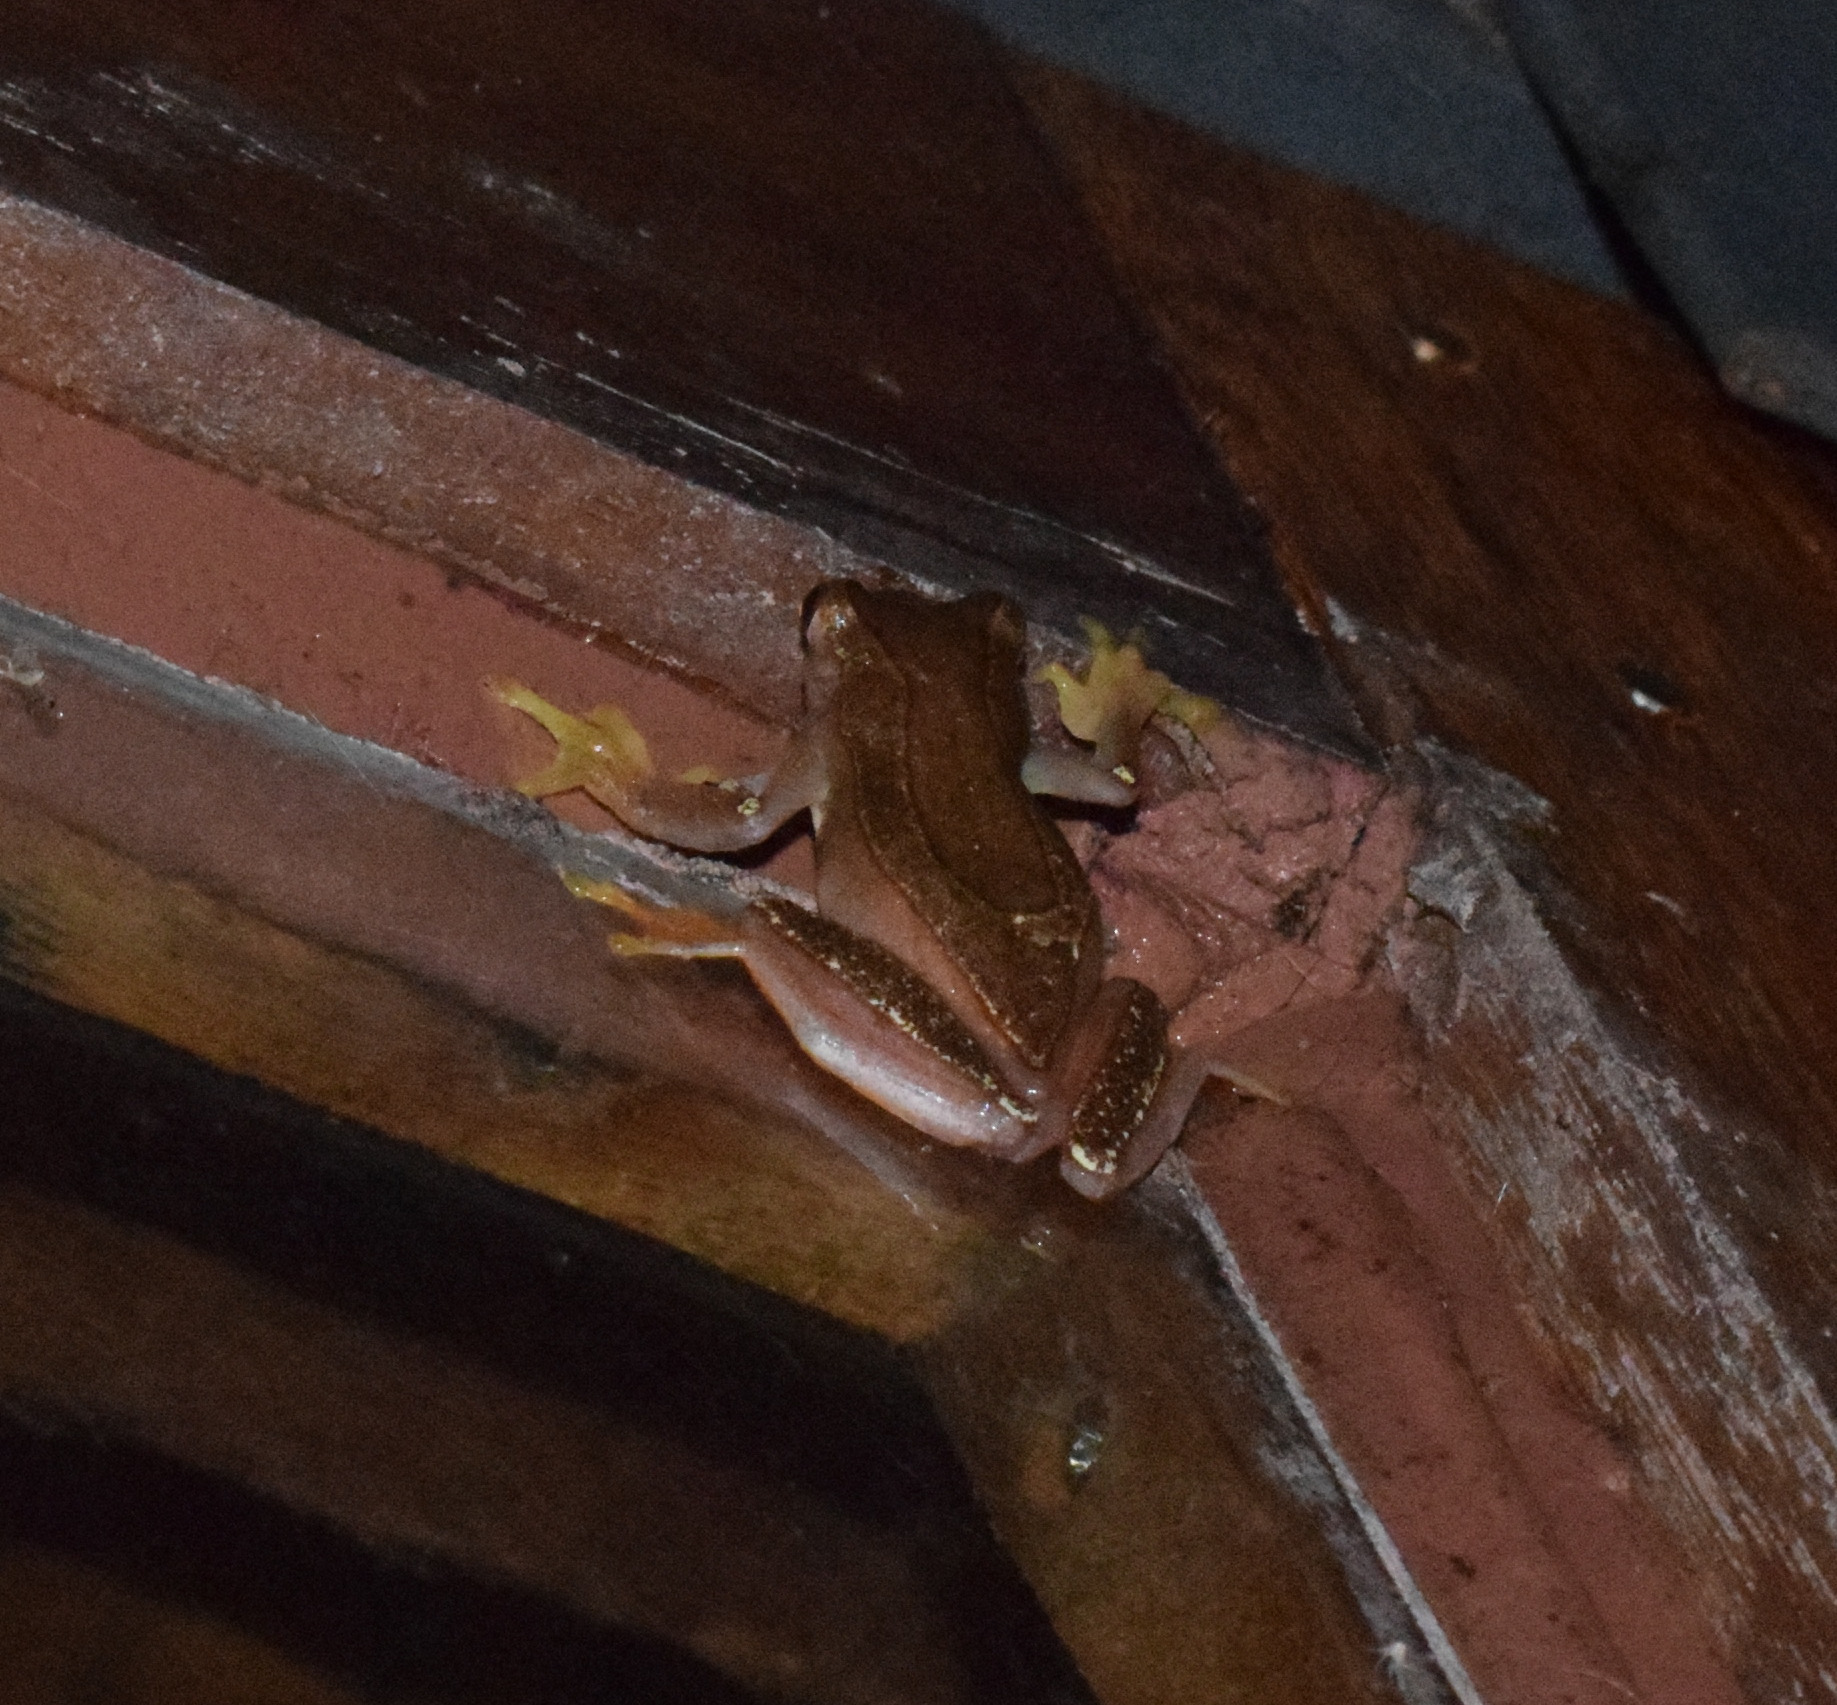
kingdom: Animalia
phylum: Chordata
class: Amphibia
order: Anura
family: Hylidae
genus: Dendropsophus
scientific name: Dendropsophus elegans
